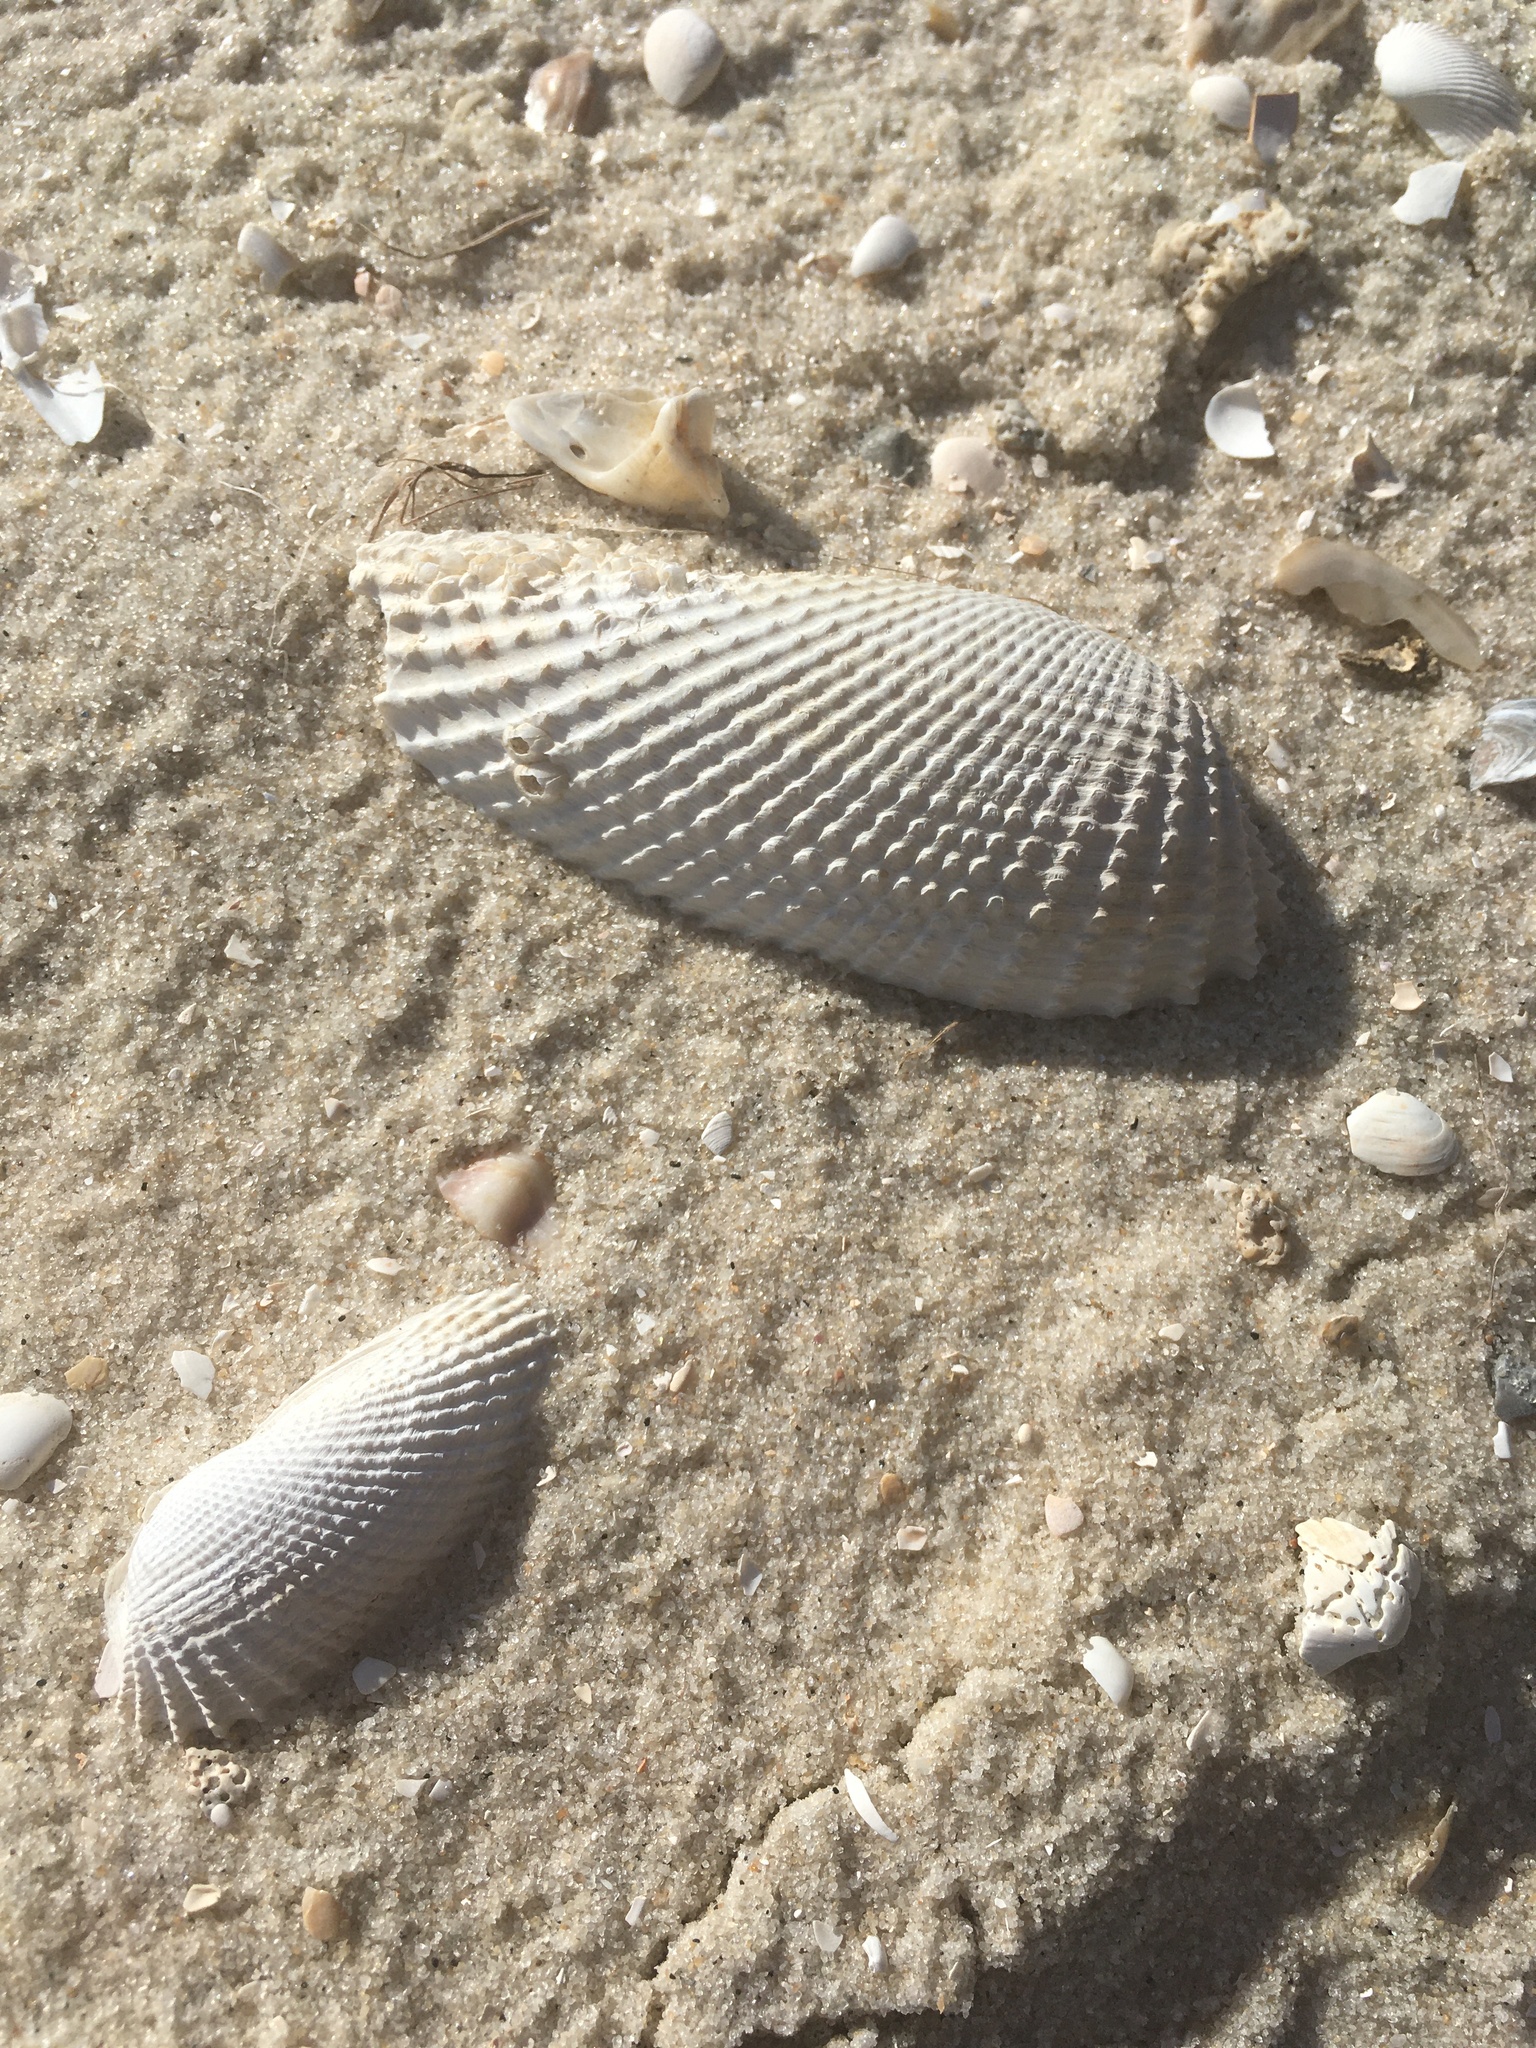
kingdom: Animalia
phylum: Mollusca
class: Bivalvia
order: Myida
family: Pholadidae
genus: Cyrtopleura
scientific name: Cyrtopleura costata
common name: Angel wing
